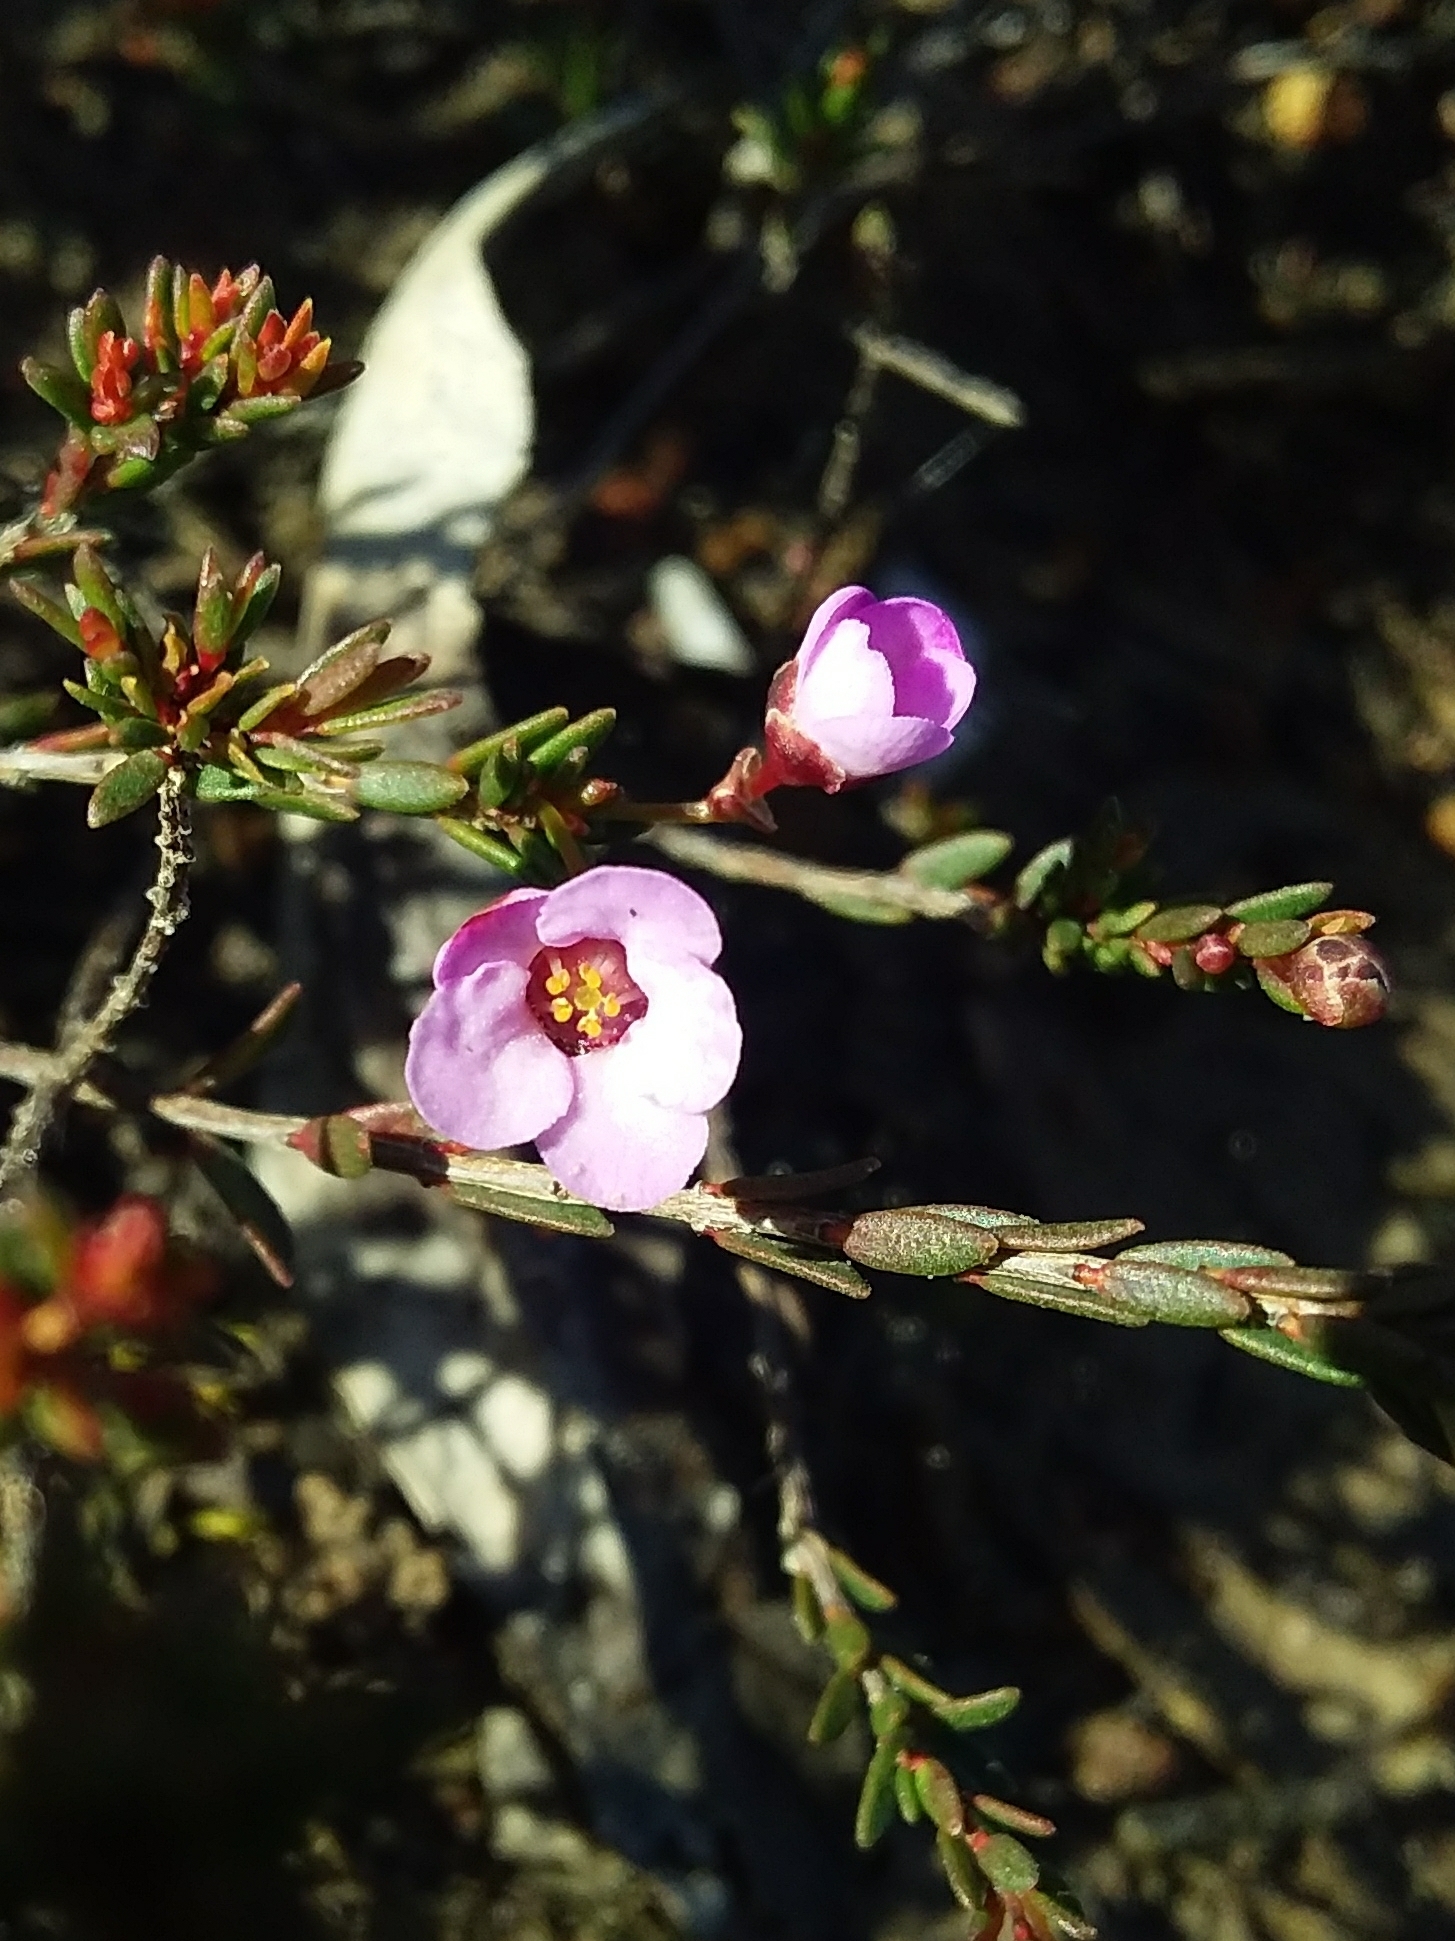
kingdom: Plantae
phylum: Tracheophyta
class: Magnoliopsida
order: Myrtales
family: Myrtaceae
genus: Euryomyrtus
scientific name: Euryomyrtus ramosissima
